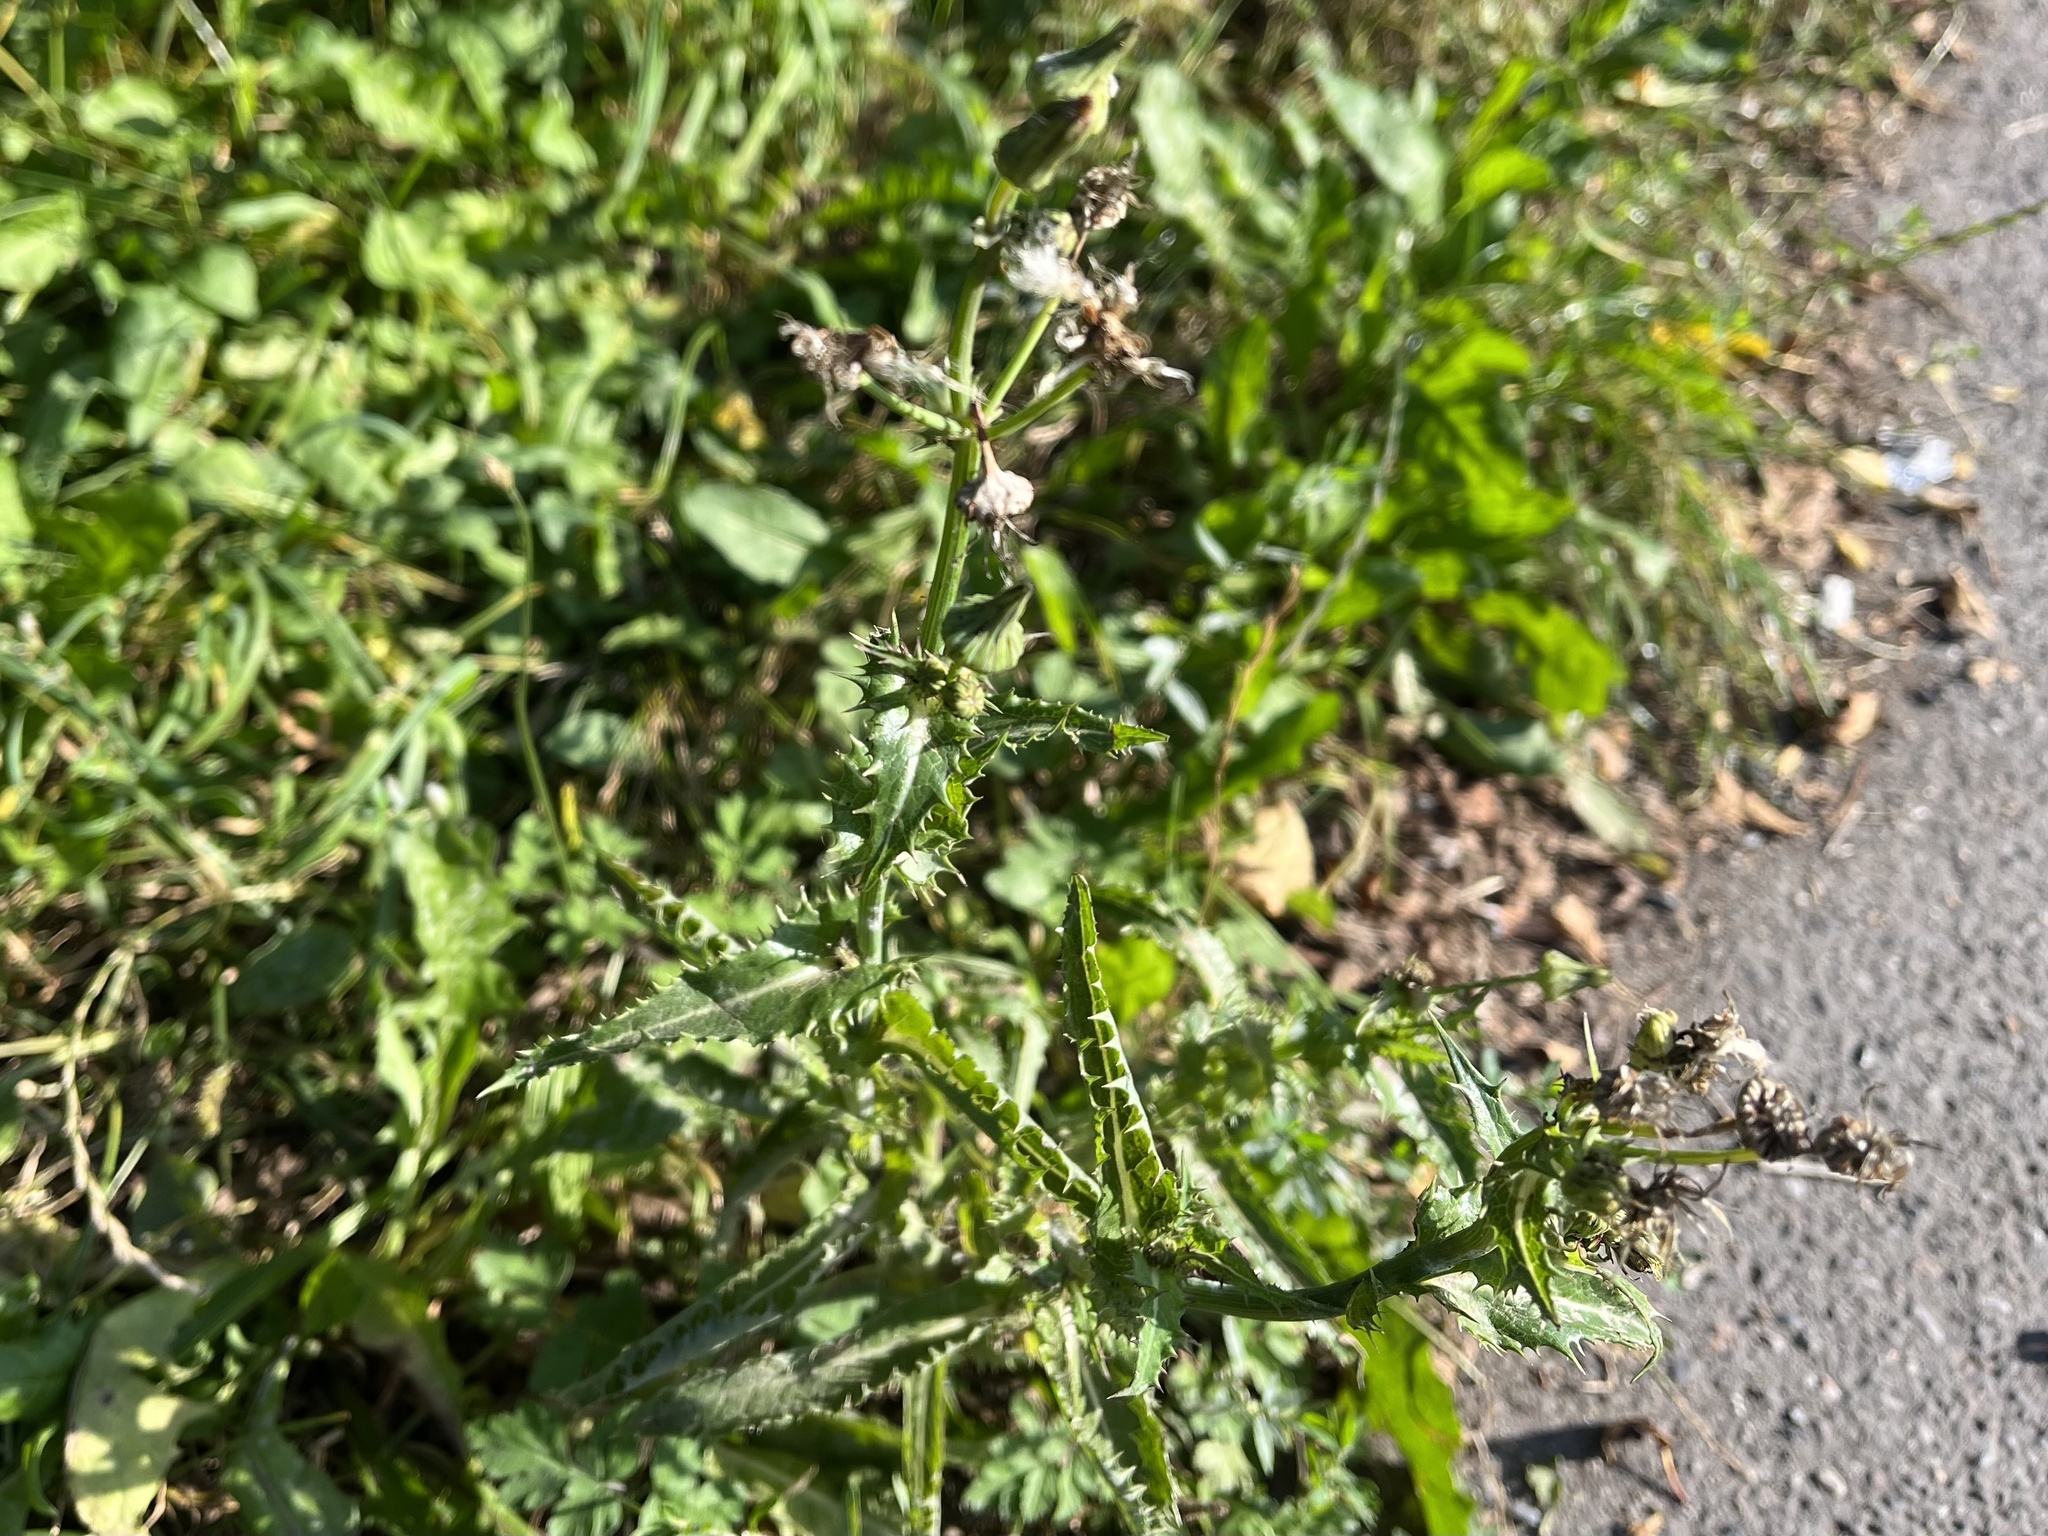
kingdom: Plantae
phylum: Tracheophyta
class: Magnoliopsida
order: Asterales
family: Asteraceae
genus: Sonchus
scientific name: Sonchus asper
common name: Prickly sow-thistle
